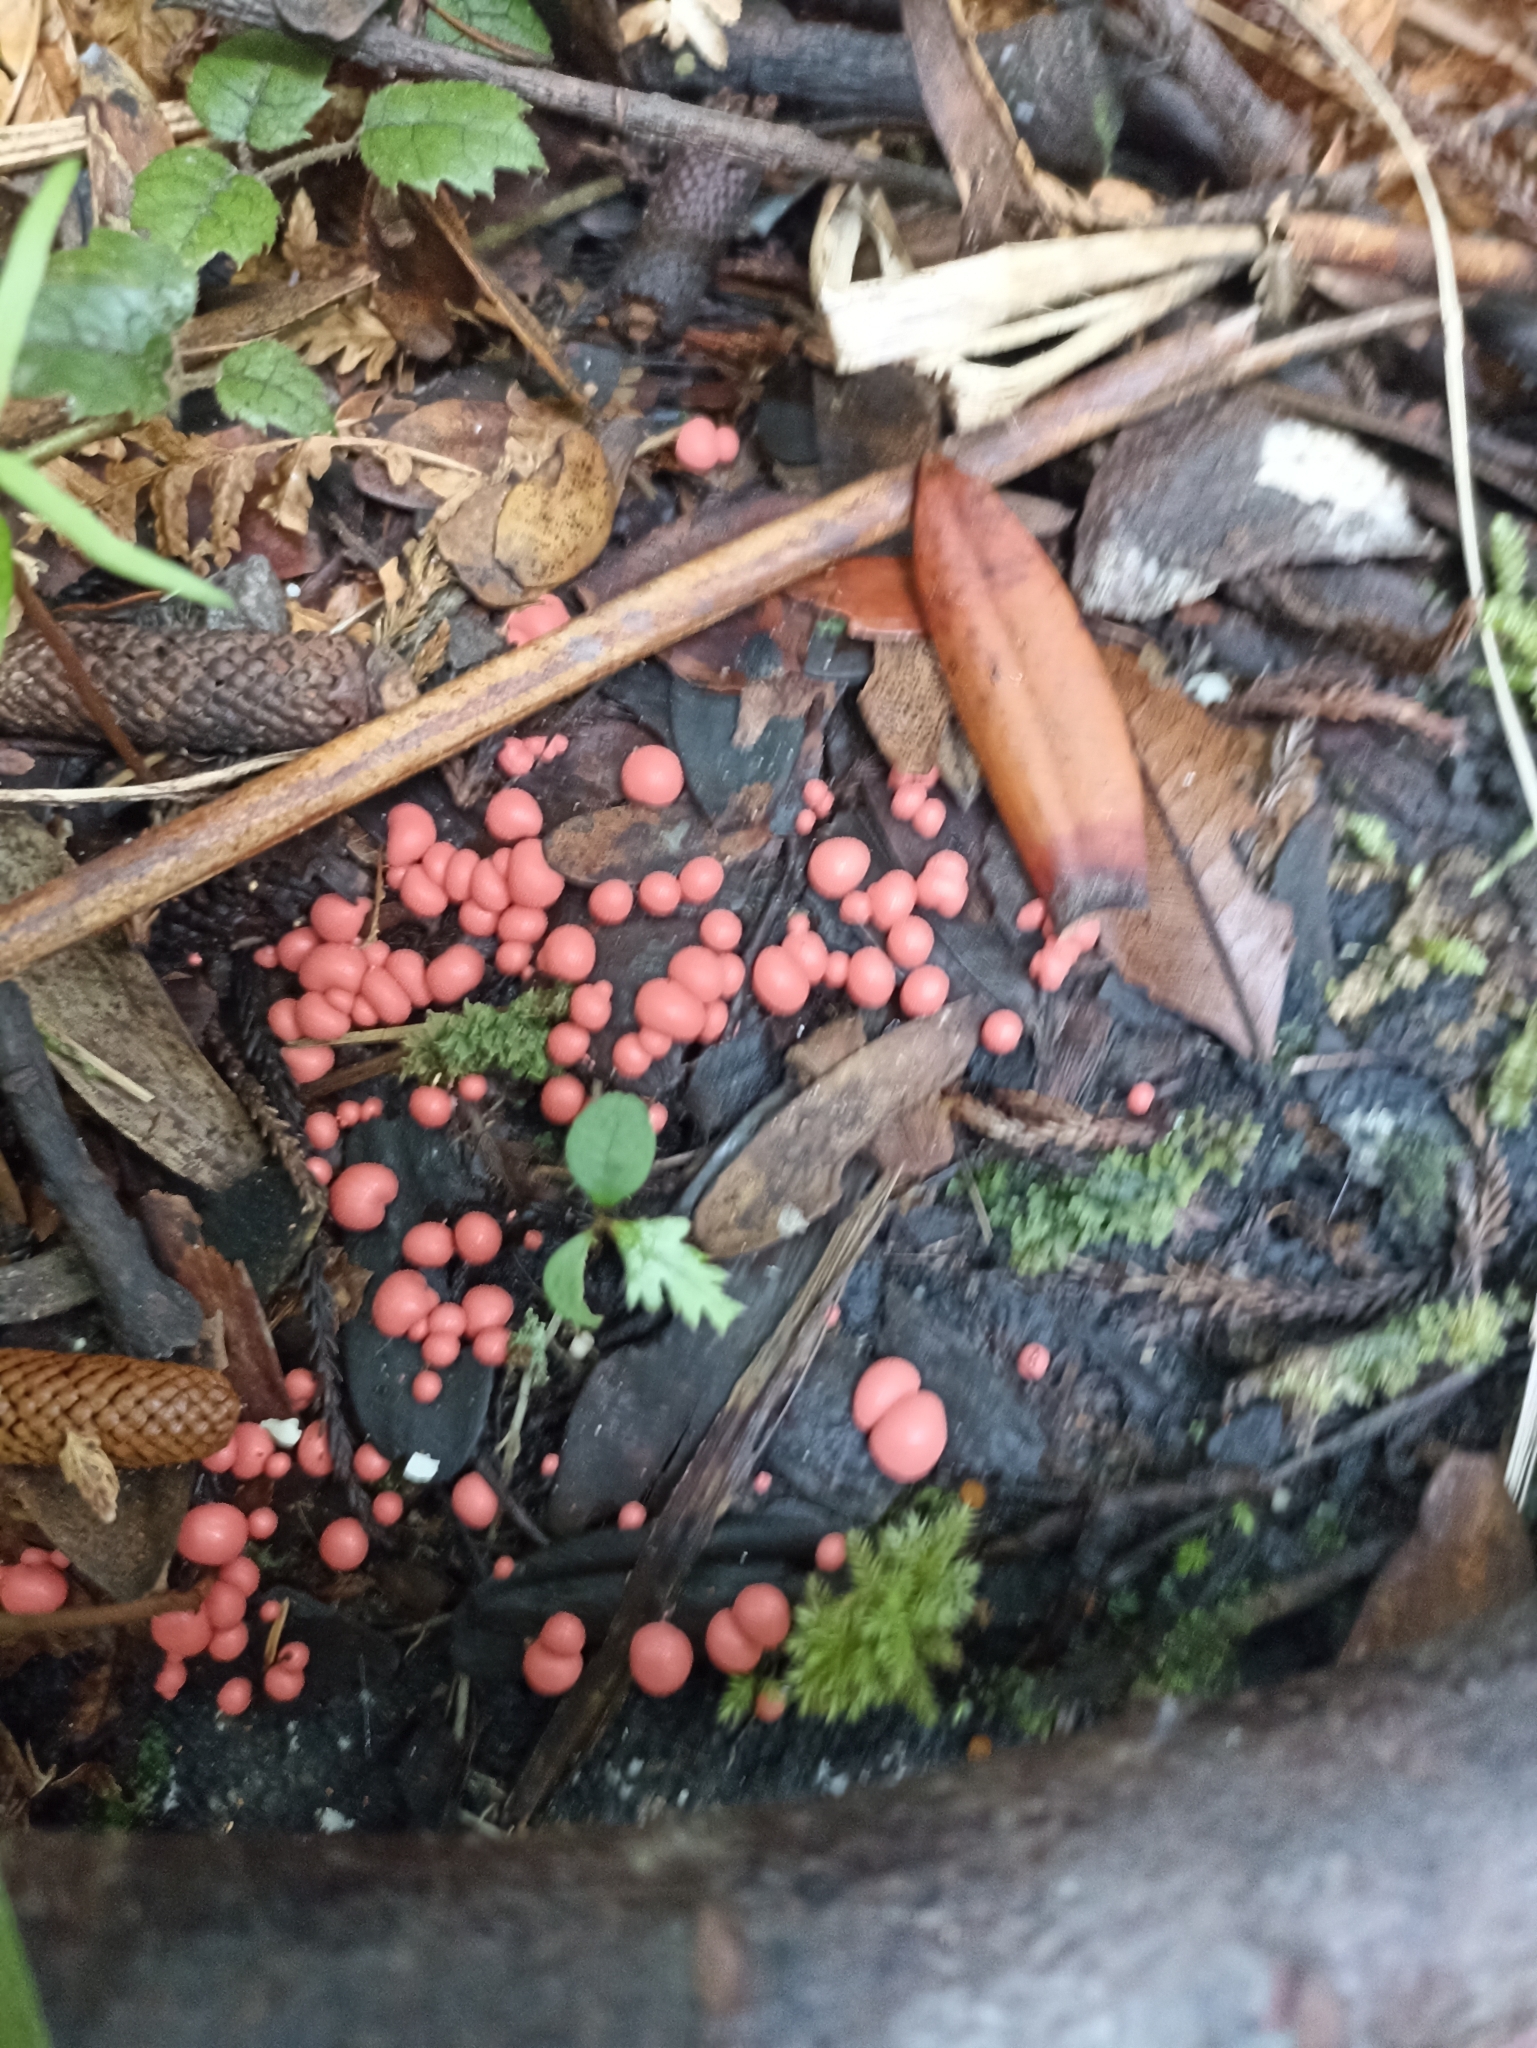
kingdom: Protozoa
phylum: Mycetozoa
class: Myxomycetes
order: Cribrariales
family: Tubiferaceae
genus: Lycogala
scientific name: Lycogala epidendrum
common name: Wolf's milk
